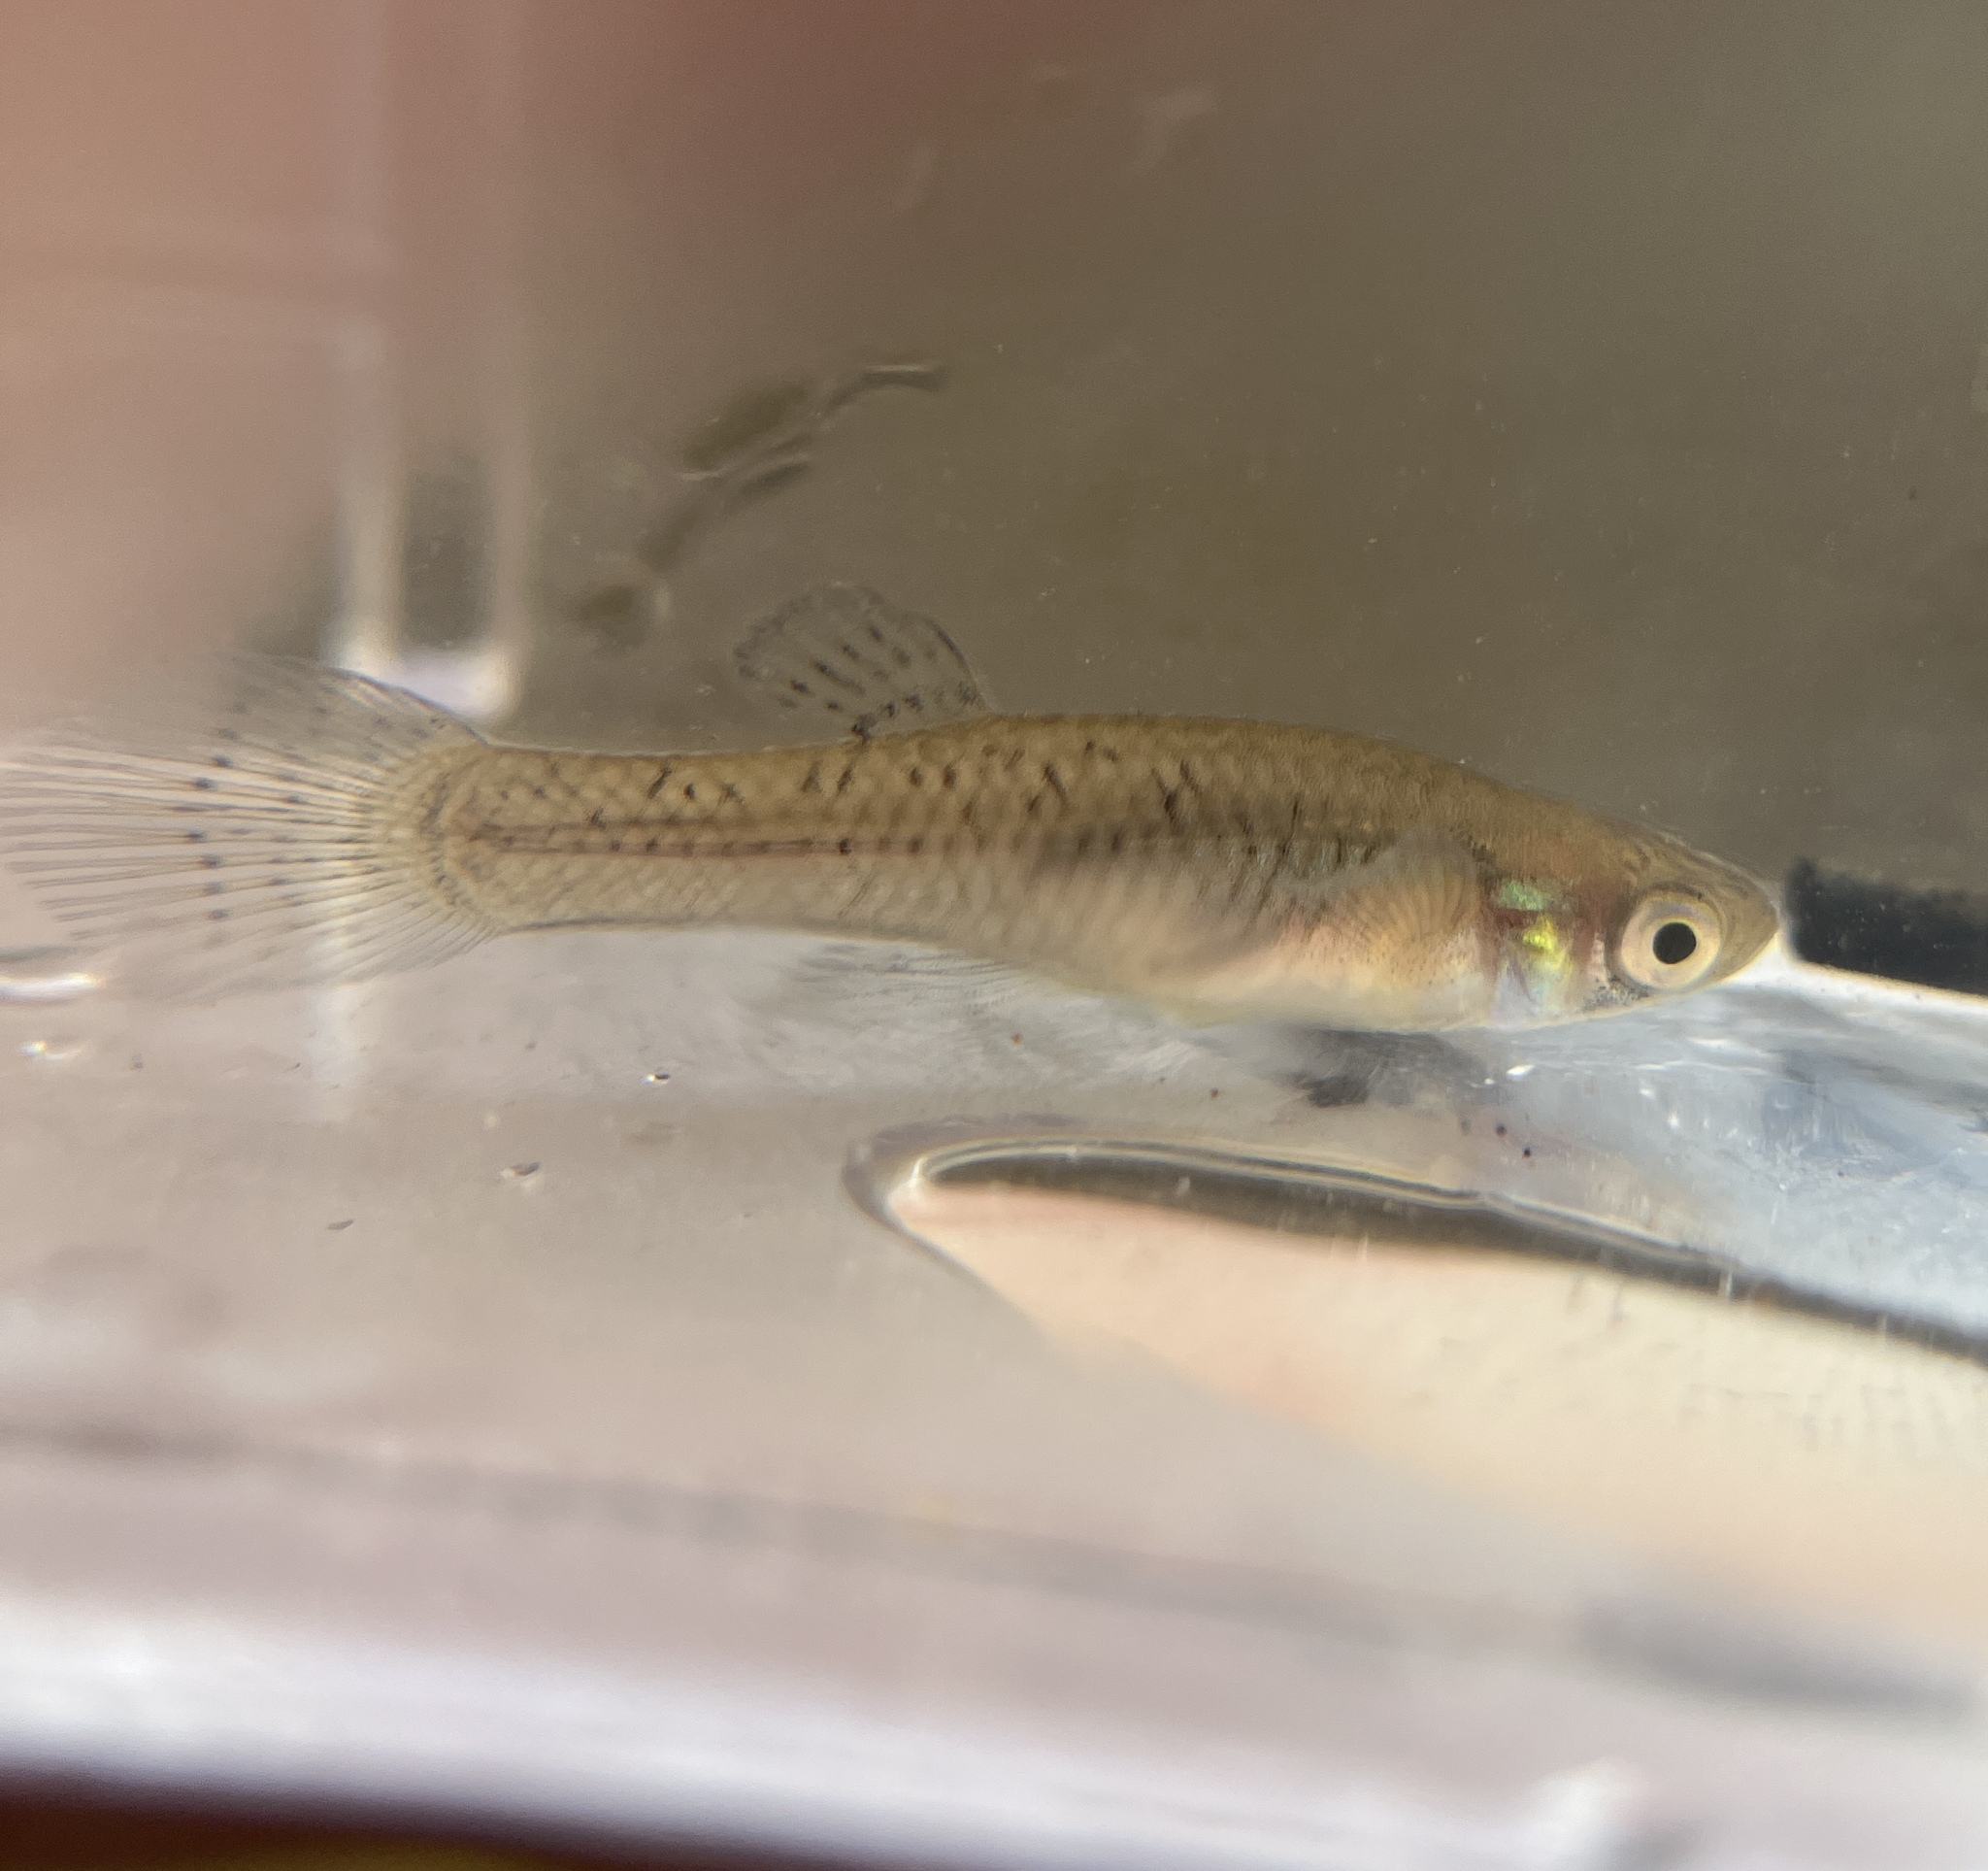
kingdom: Animalia
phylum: Chordata
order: Cyprinodontiformes
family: Poeciliidae
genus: Gambusia
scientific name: Gambusia holbrooki
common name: Eastern mosquitofish
